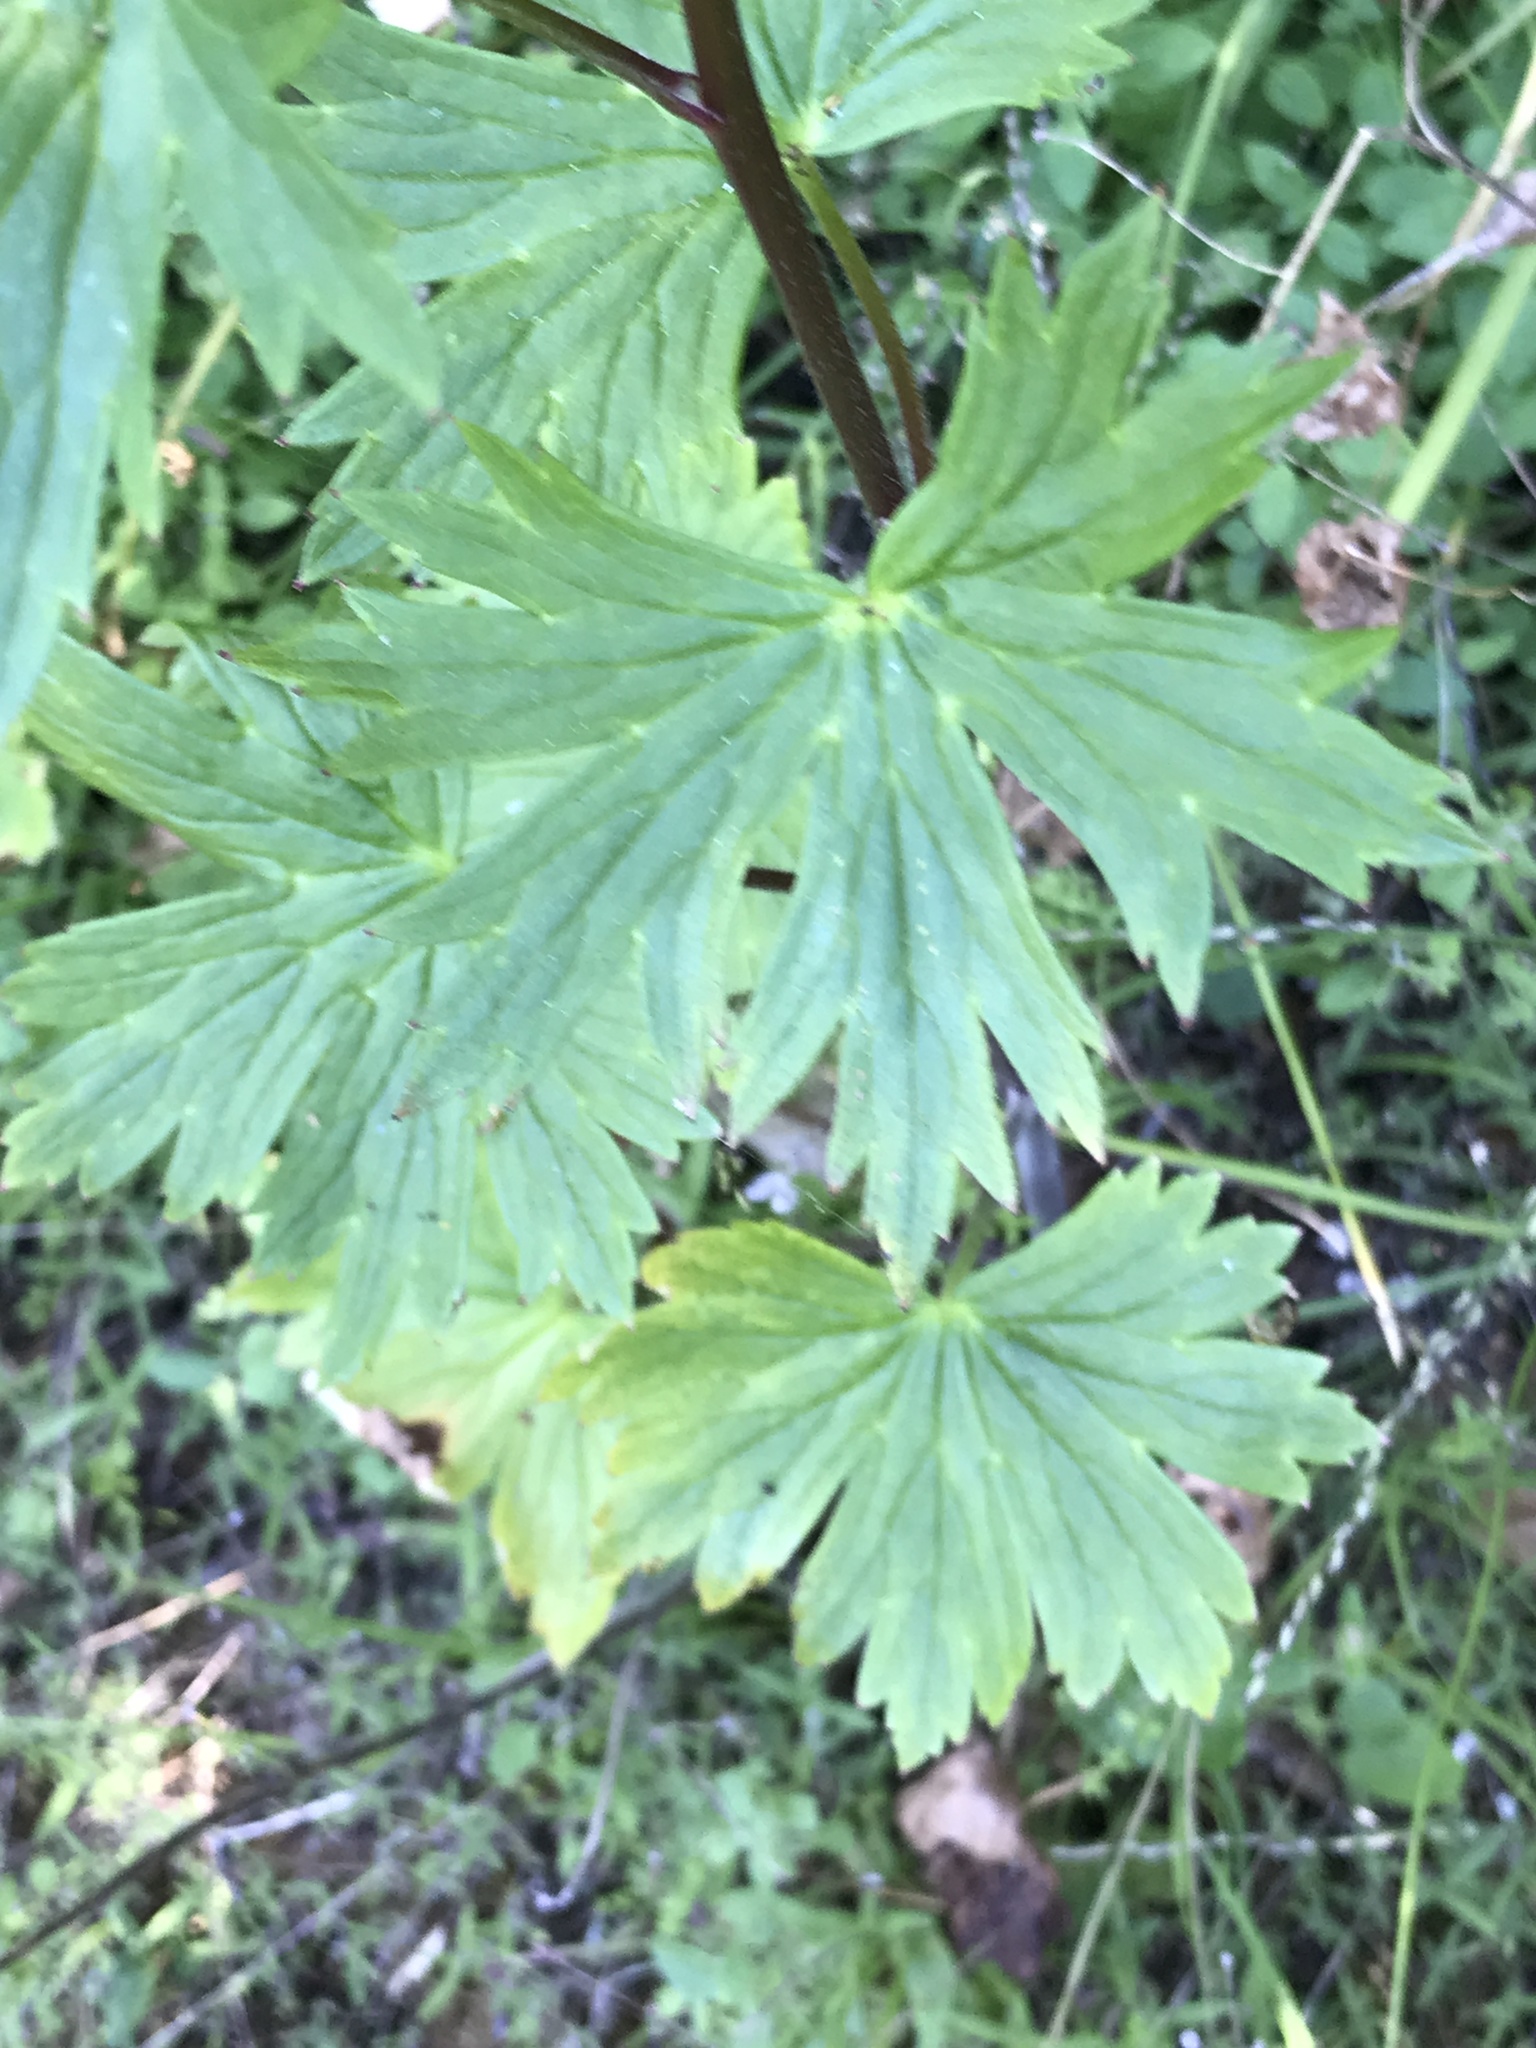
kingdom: Plantae
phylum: Tracheophyta
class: Magnoliopsida
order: Ranunculales
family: Ranunculaceae
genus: Delphinium
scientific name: Delphinium californicum
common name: California larkspur
